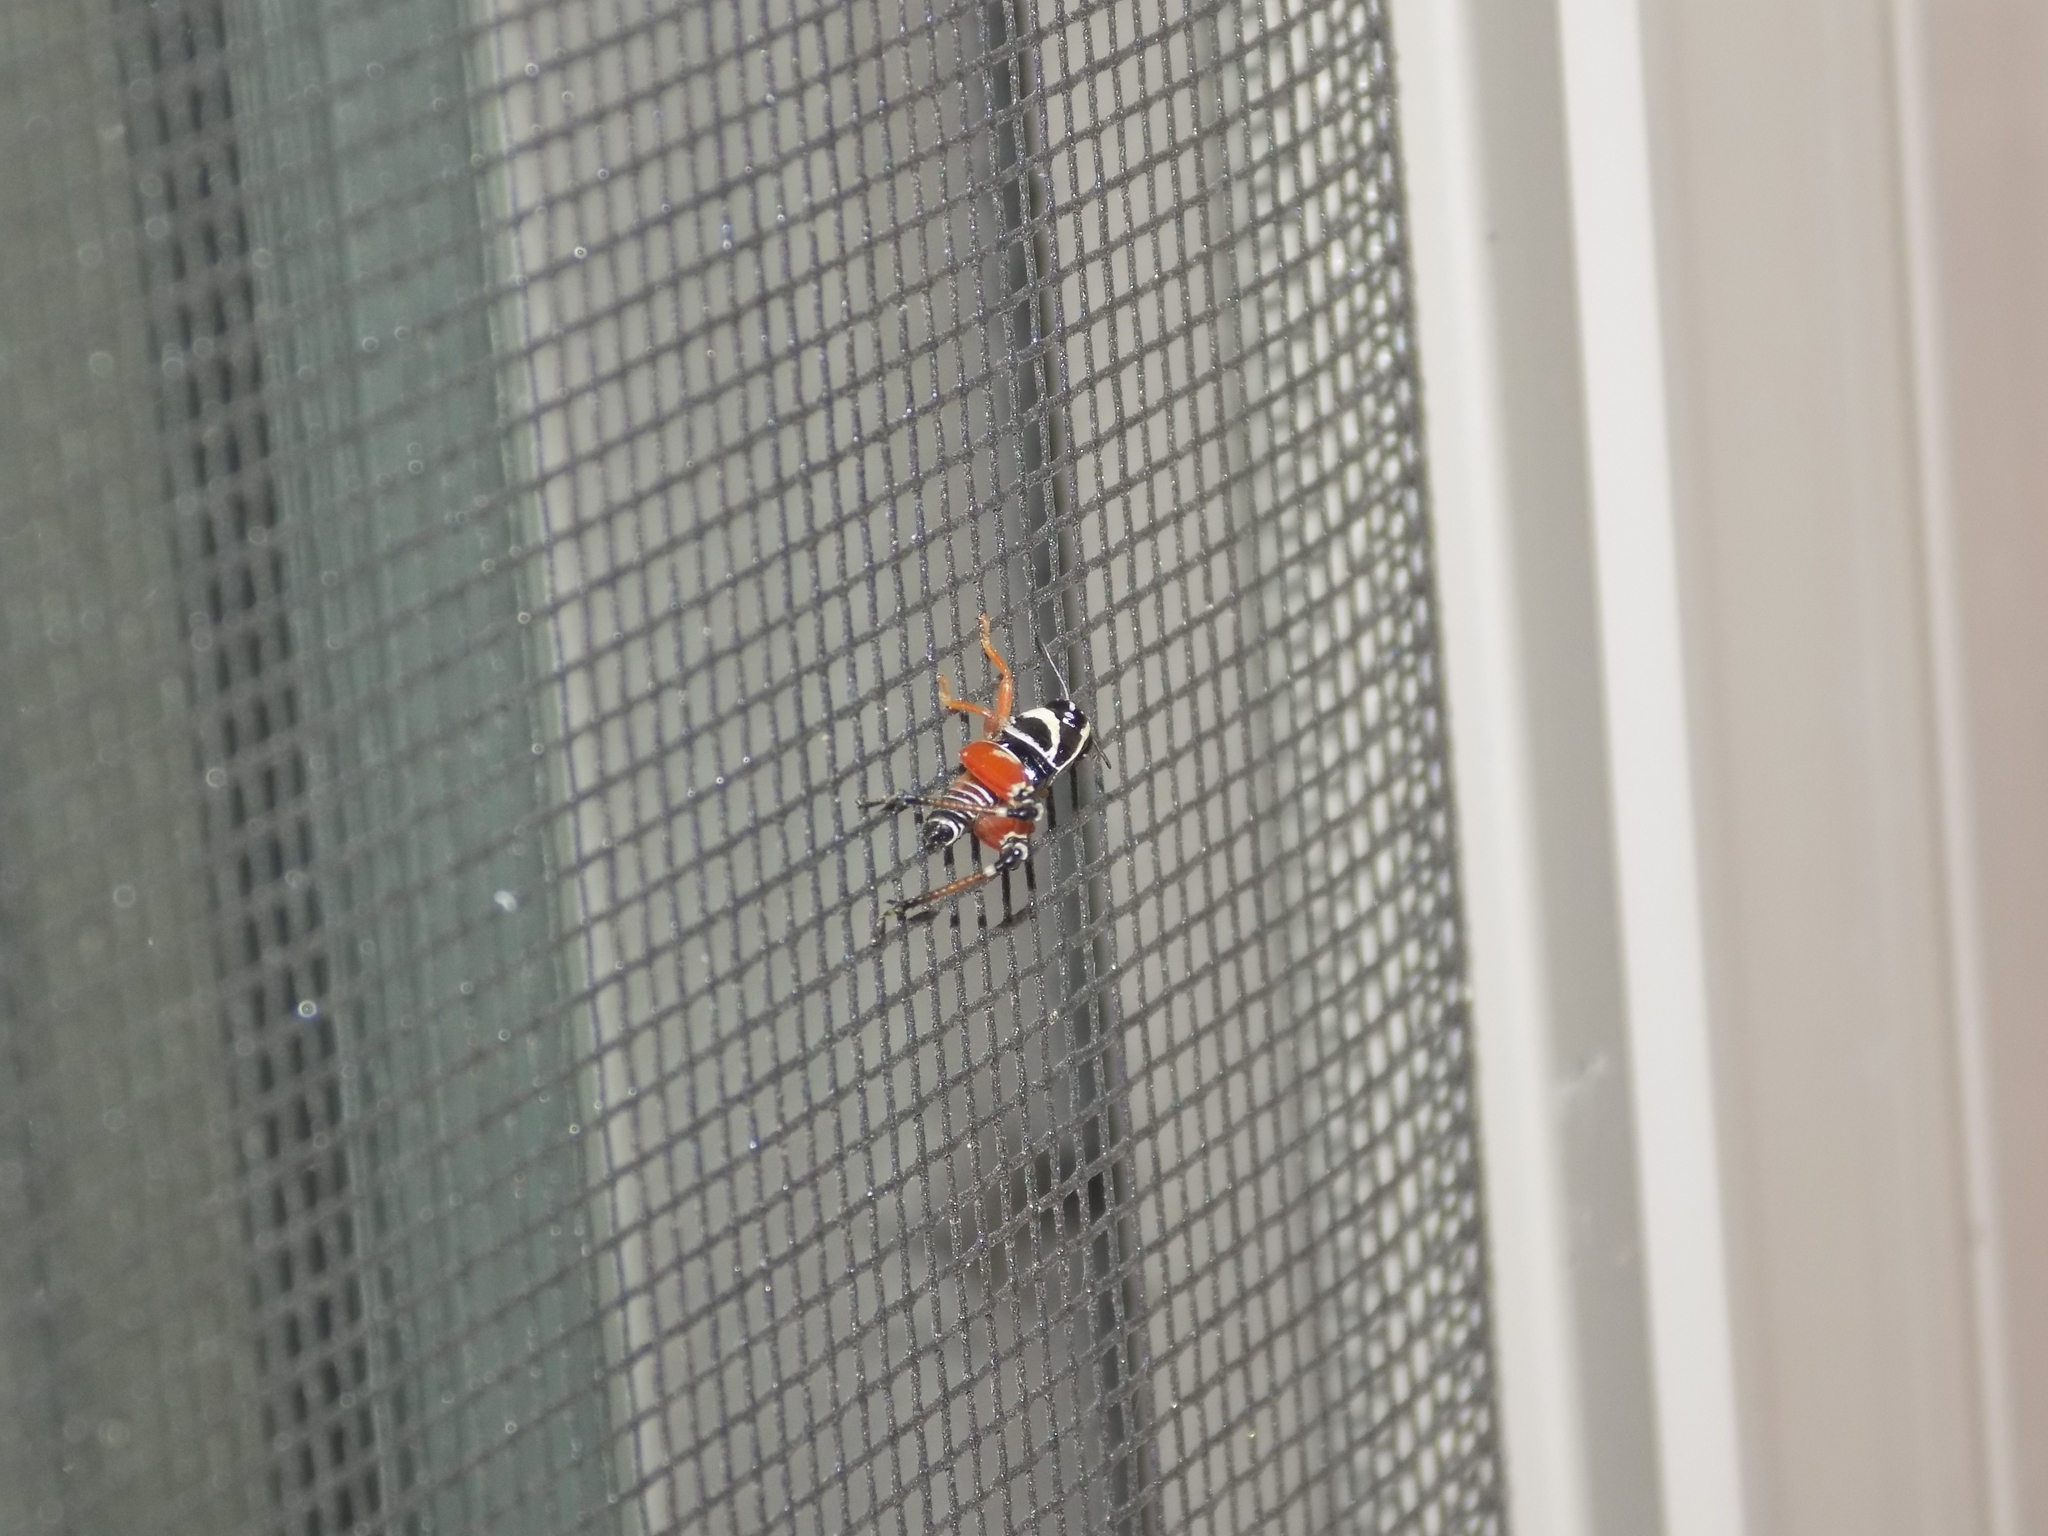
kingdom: Animalia
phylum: Arthropoda
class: Insecta
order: Orthoptera
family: Acrididae
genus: Aidemona
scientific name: Aidemona azteca
